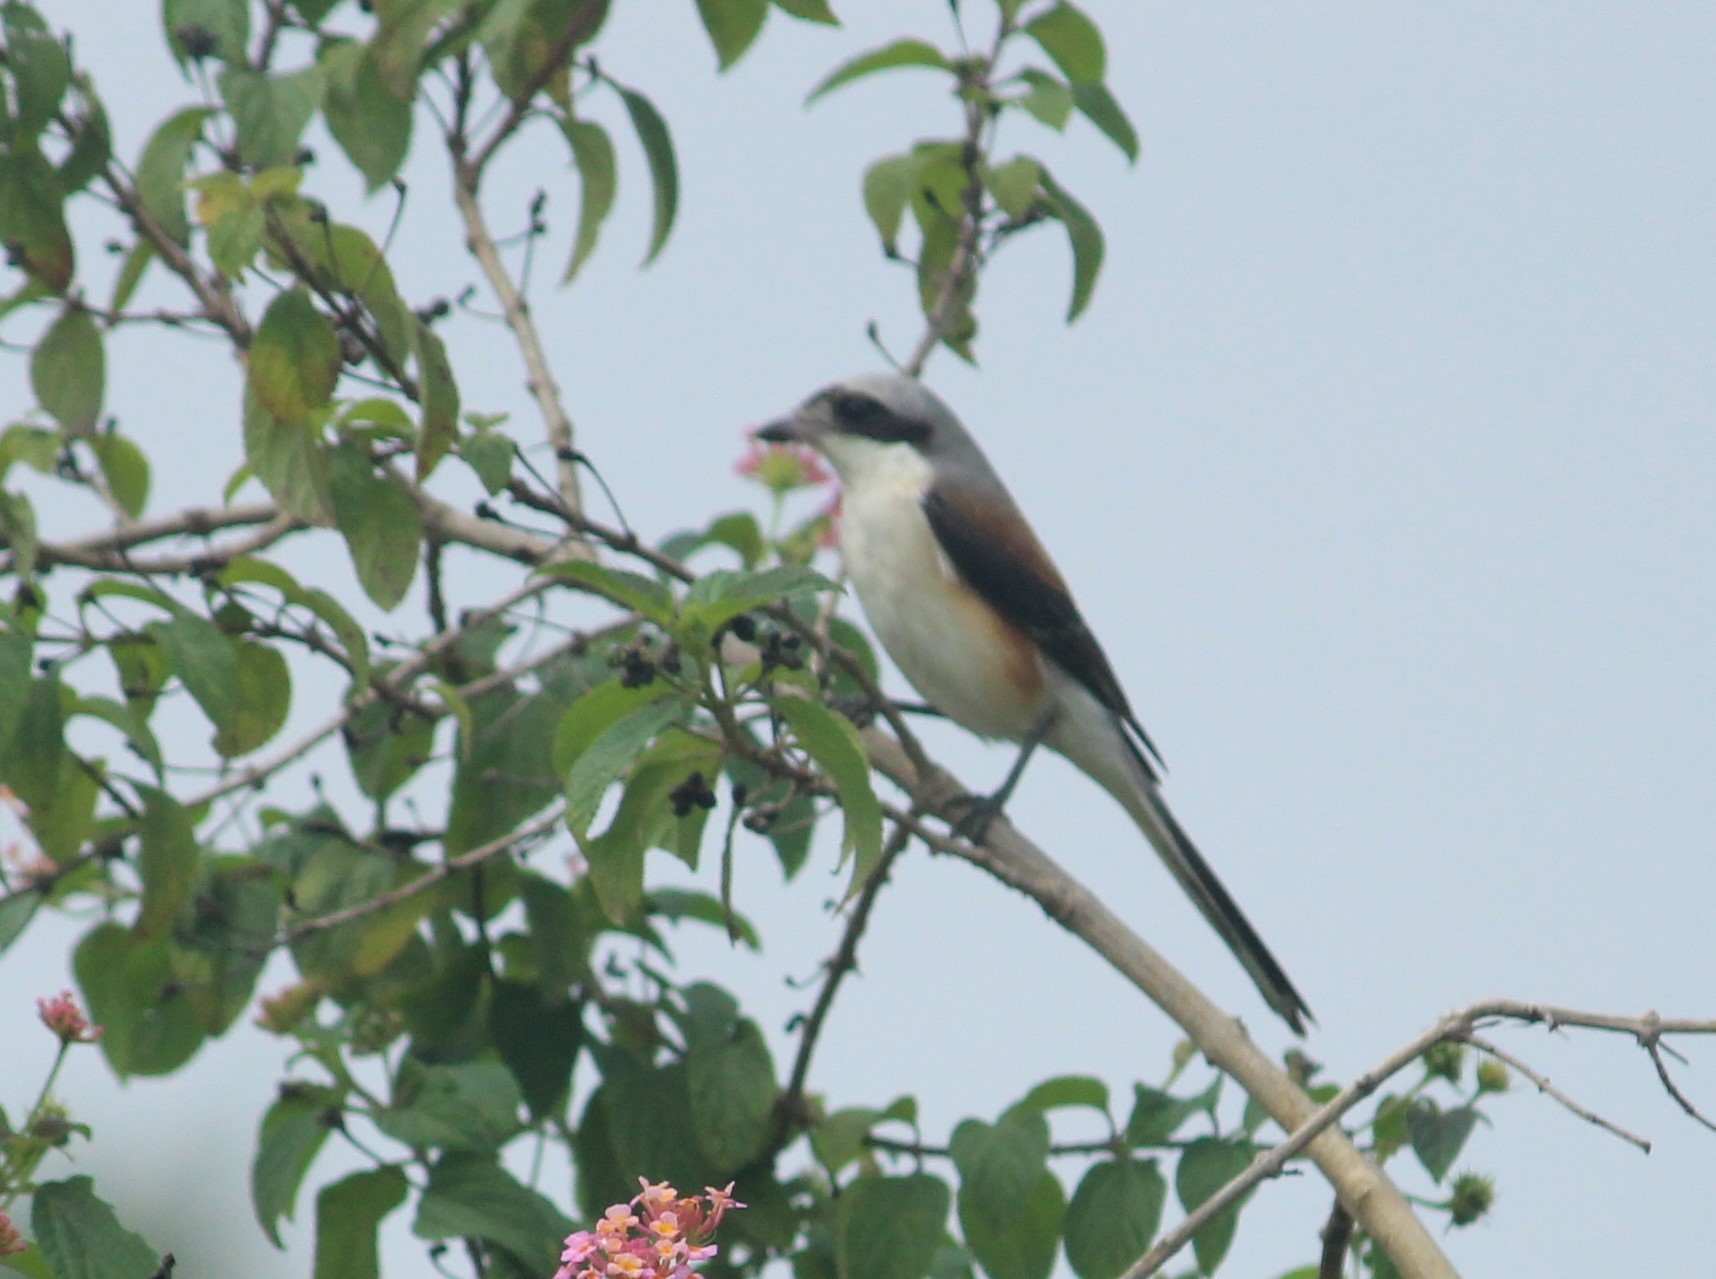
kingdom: Animalia
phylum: Chordata
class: Aves
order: Passeriformes
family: Laniidae
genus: Lanius
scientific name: Lanius vittatus
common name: Bay-backed shrike
